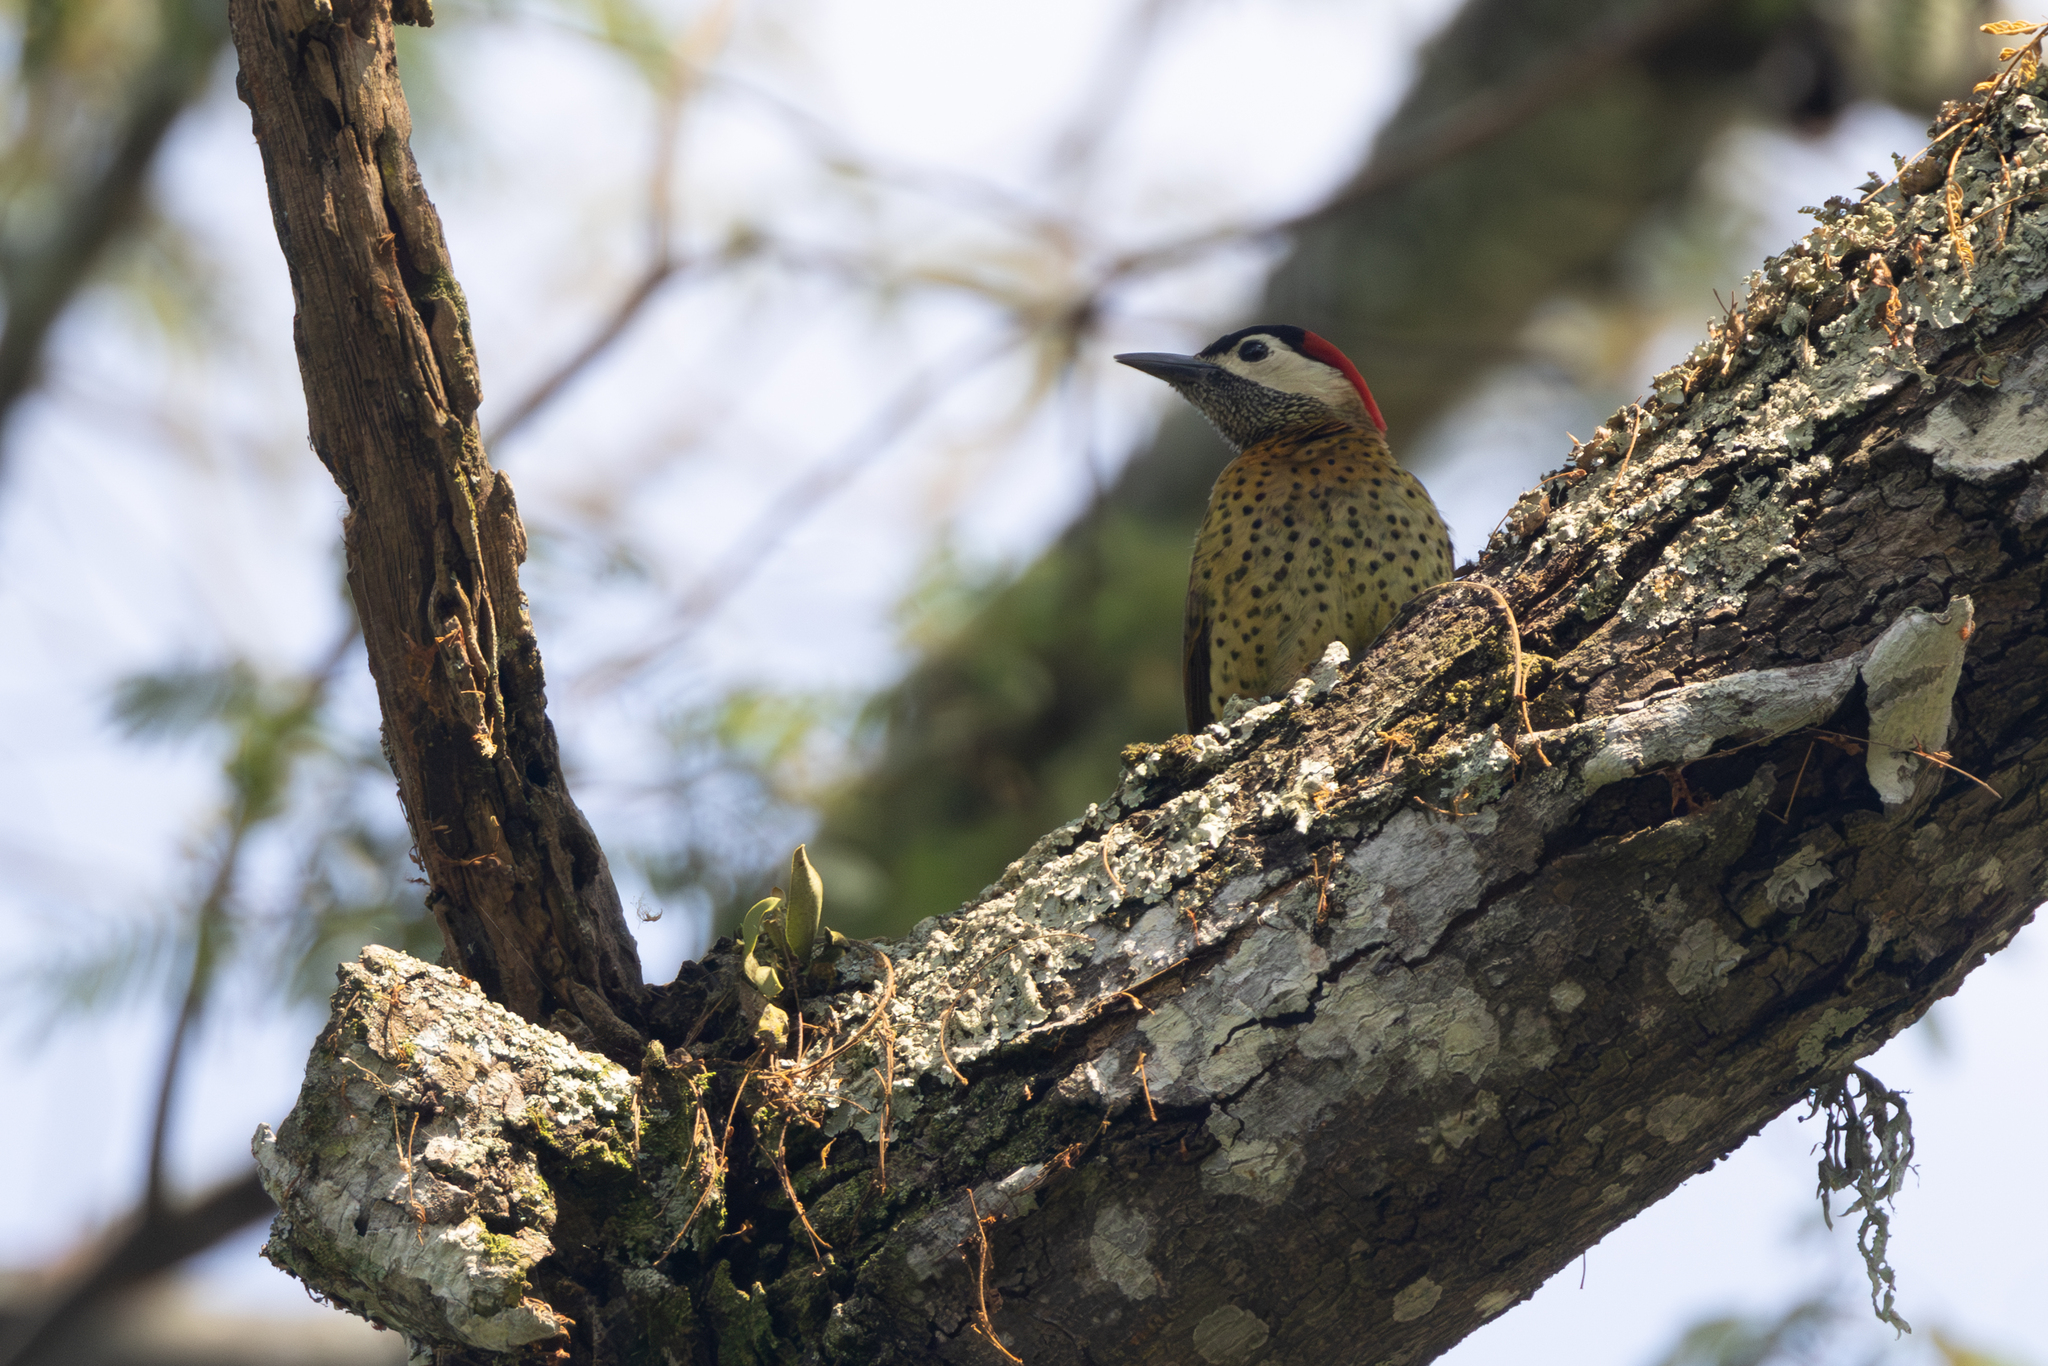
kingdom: Animalia
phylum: Chordata
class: Aves
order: Piciformes
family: Picidae
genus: Colaptes
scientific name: Colaptes punctigula
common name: Spot-breasted woodpecker
